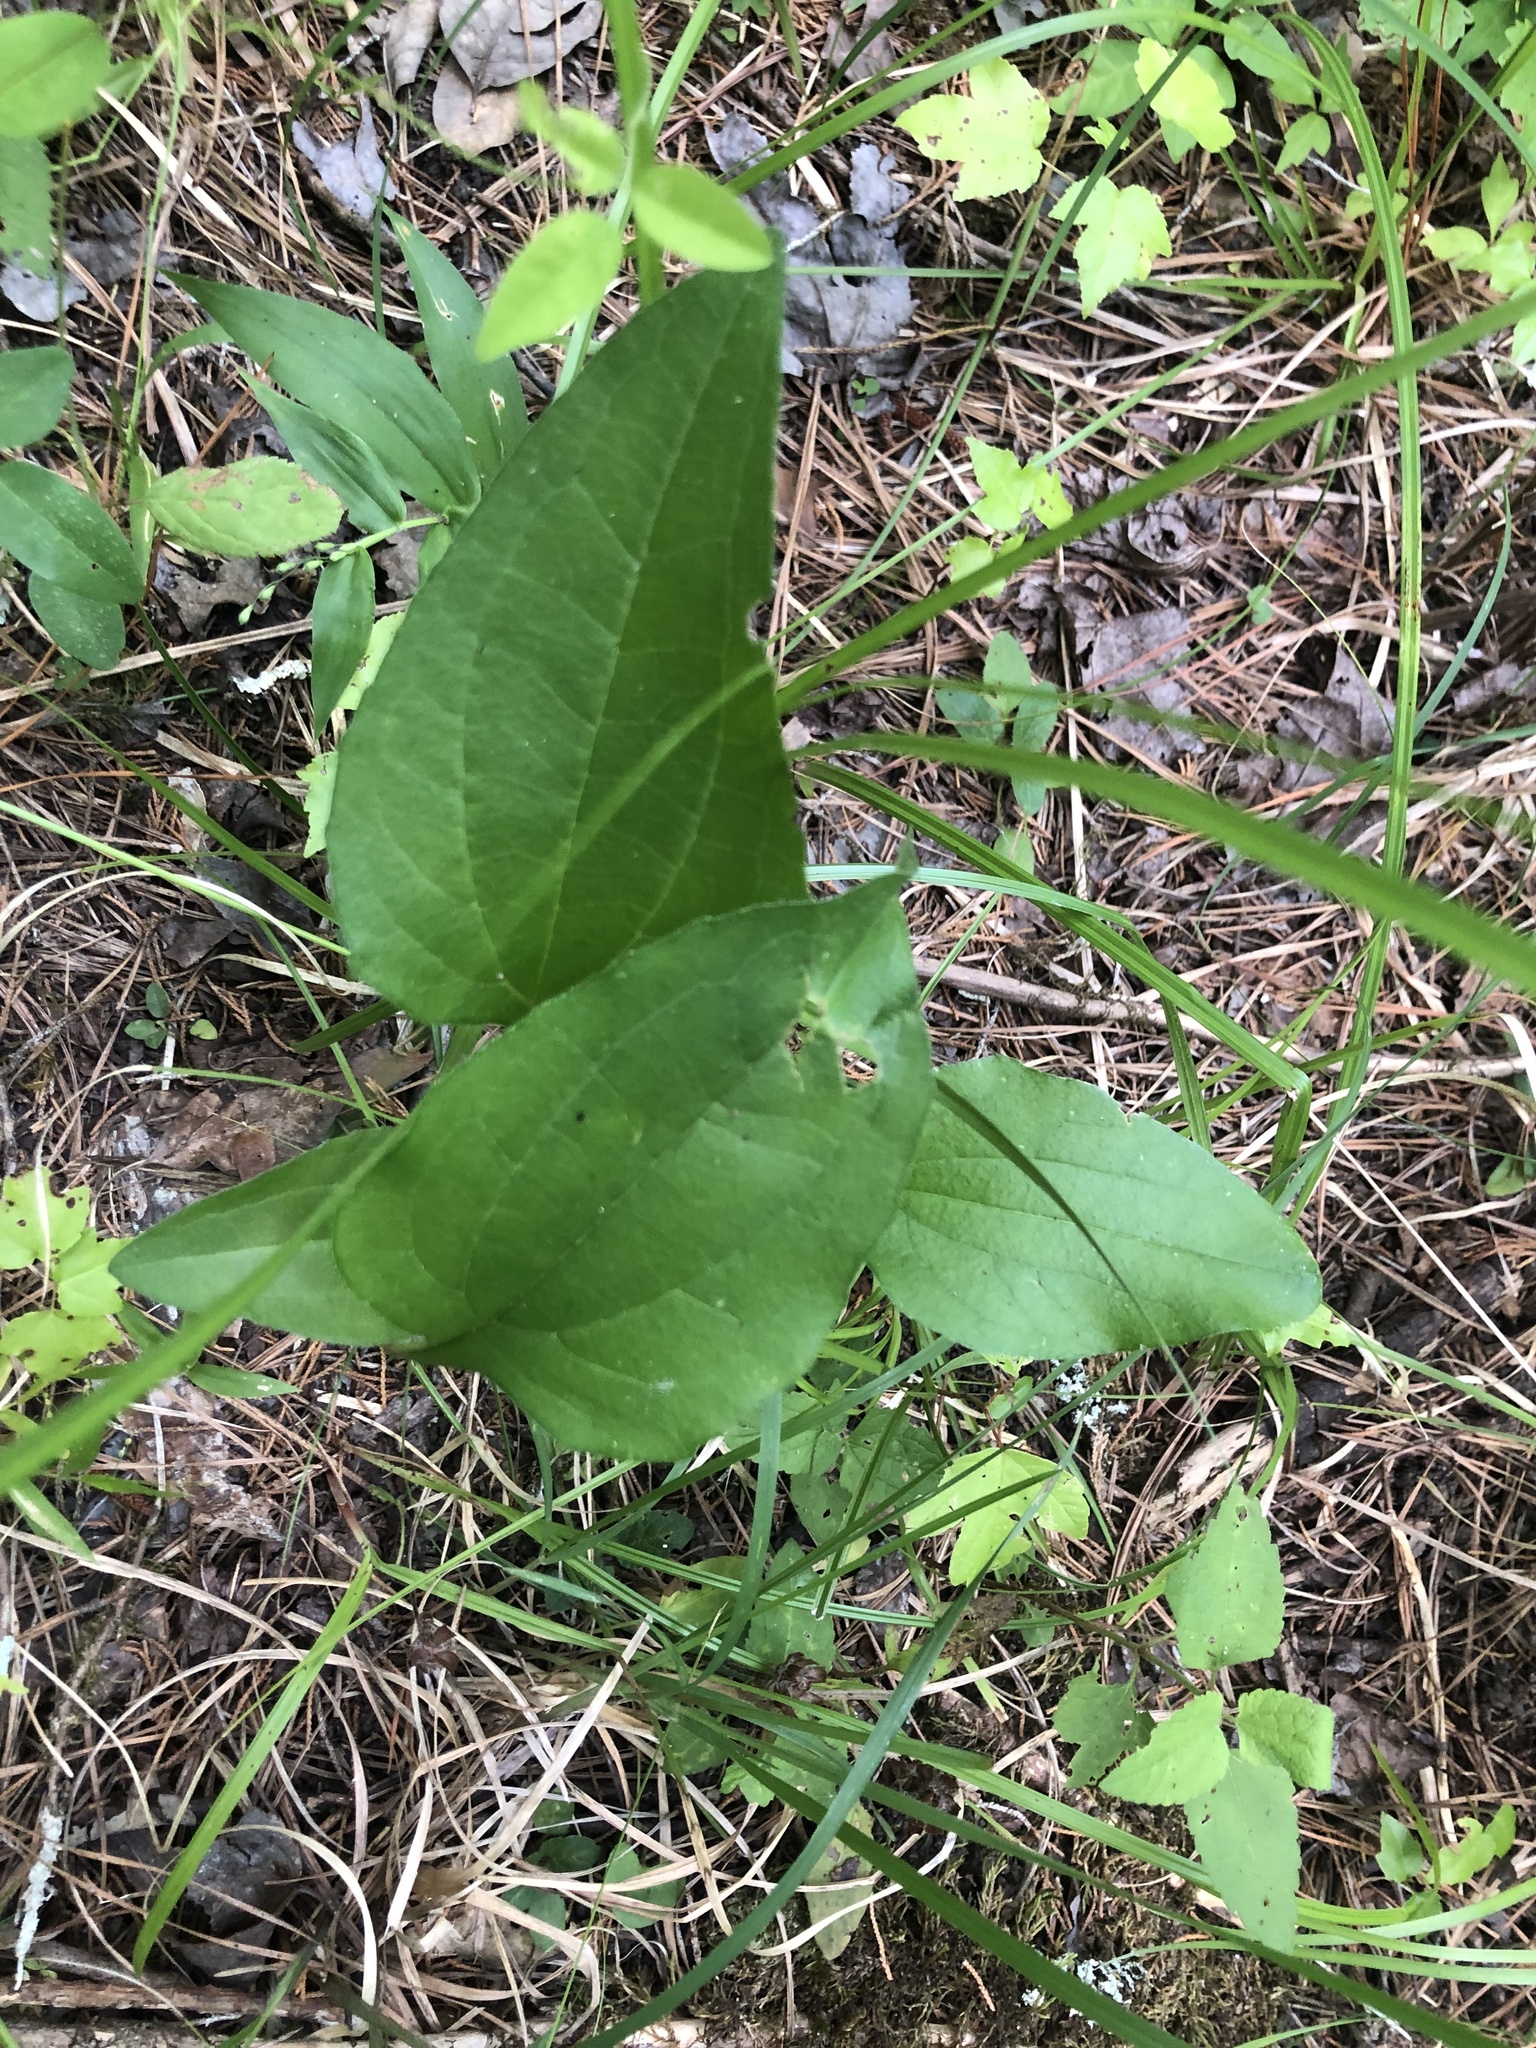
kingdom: Plantae
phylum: Tracheophyta
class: Magnoliopsida
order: Asterales
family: Asteraceae
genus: Echinacea
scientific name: Echinacea purpurea
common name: Broad-leaved purple coneflower
